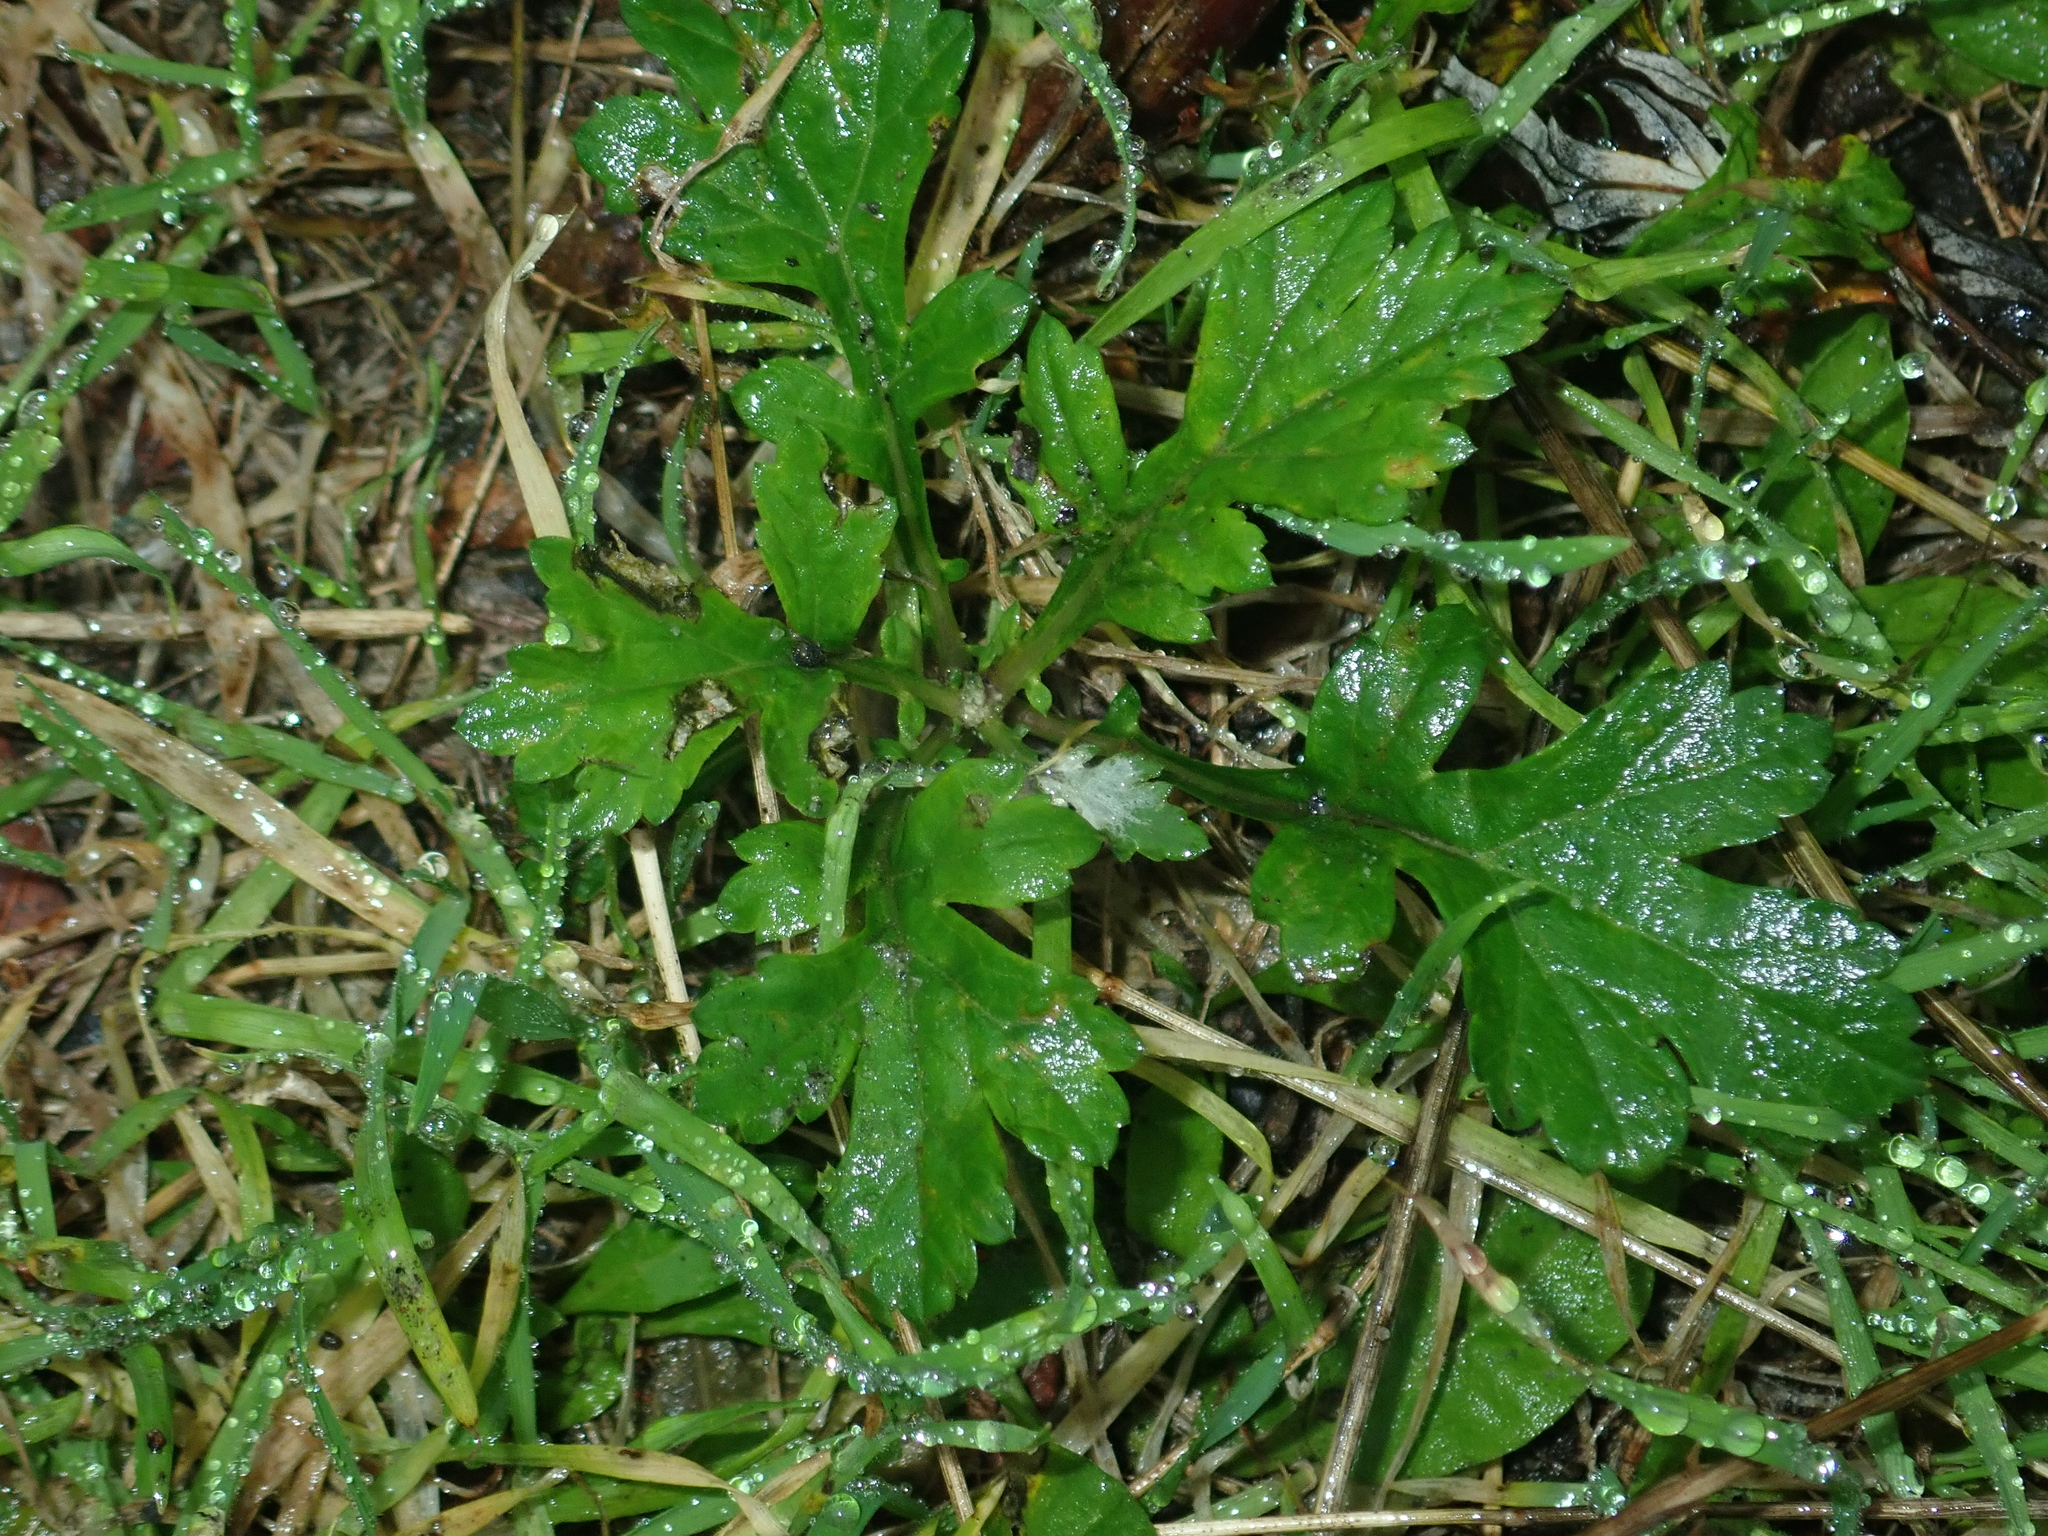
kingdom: Plantae
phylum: Tracheophyta
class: Magnoliopsida
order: Asterales
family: Asteraceae
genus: Artemisia
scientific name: Artemisia vulgaris
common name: Mugwort
